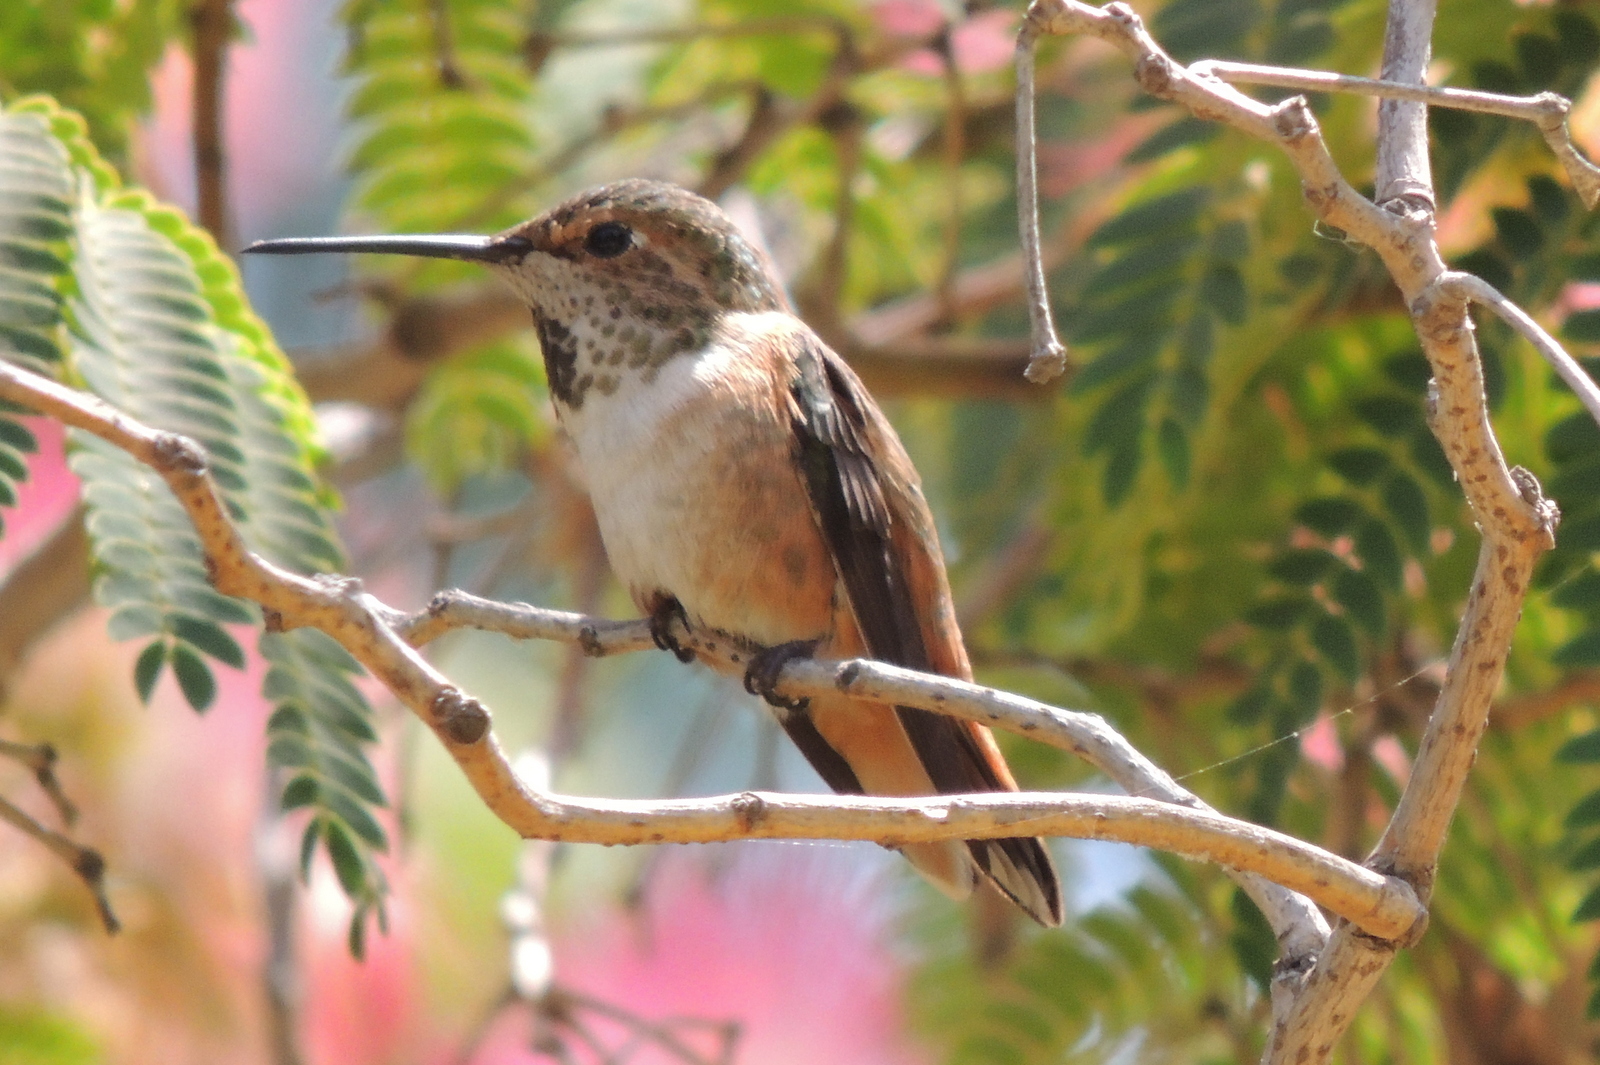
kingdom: Animalia
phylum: Chordata
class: Aves
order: Apodiformes
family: Trochilidae
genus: Selasphorus
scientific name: Selasphorus
